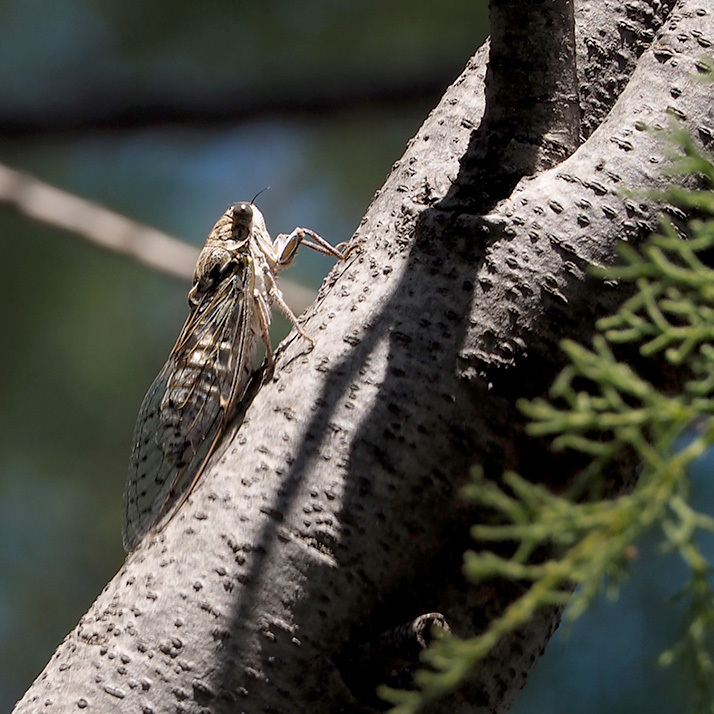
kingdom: Animalia
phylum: Arthropoda
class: Insecta
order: Hemiptera
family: Cicadidae
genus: Cicada
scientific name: Cicada orni
